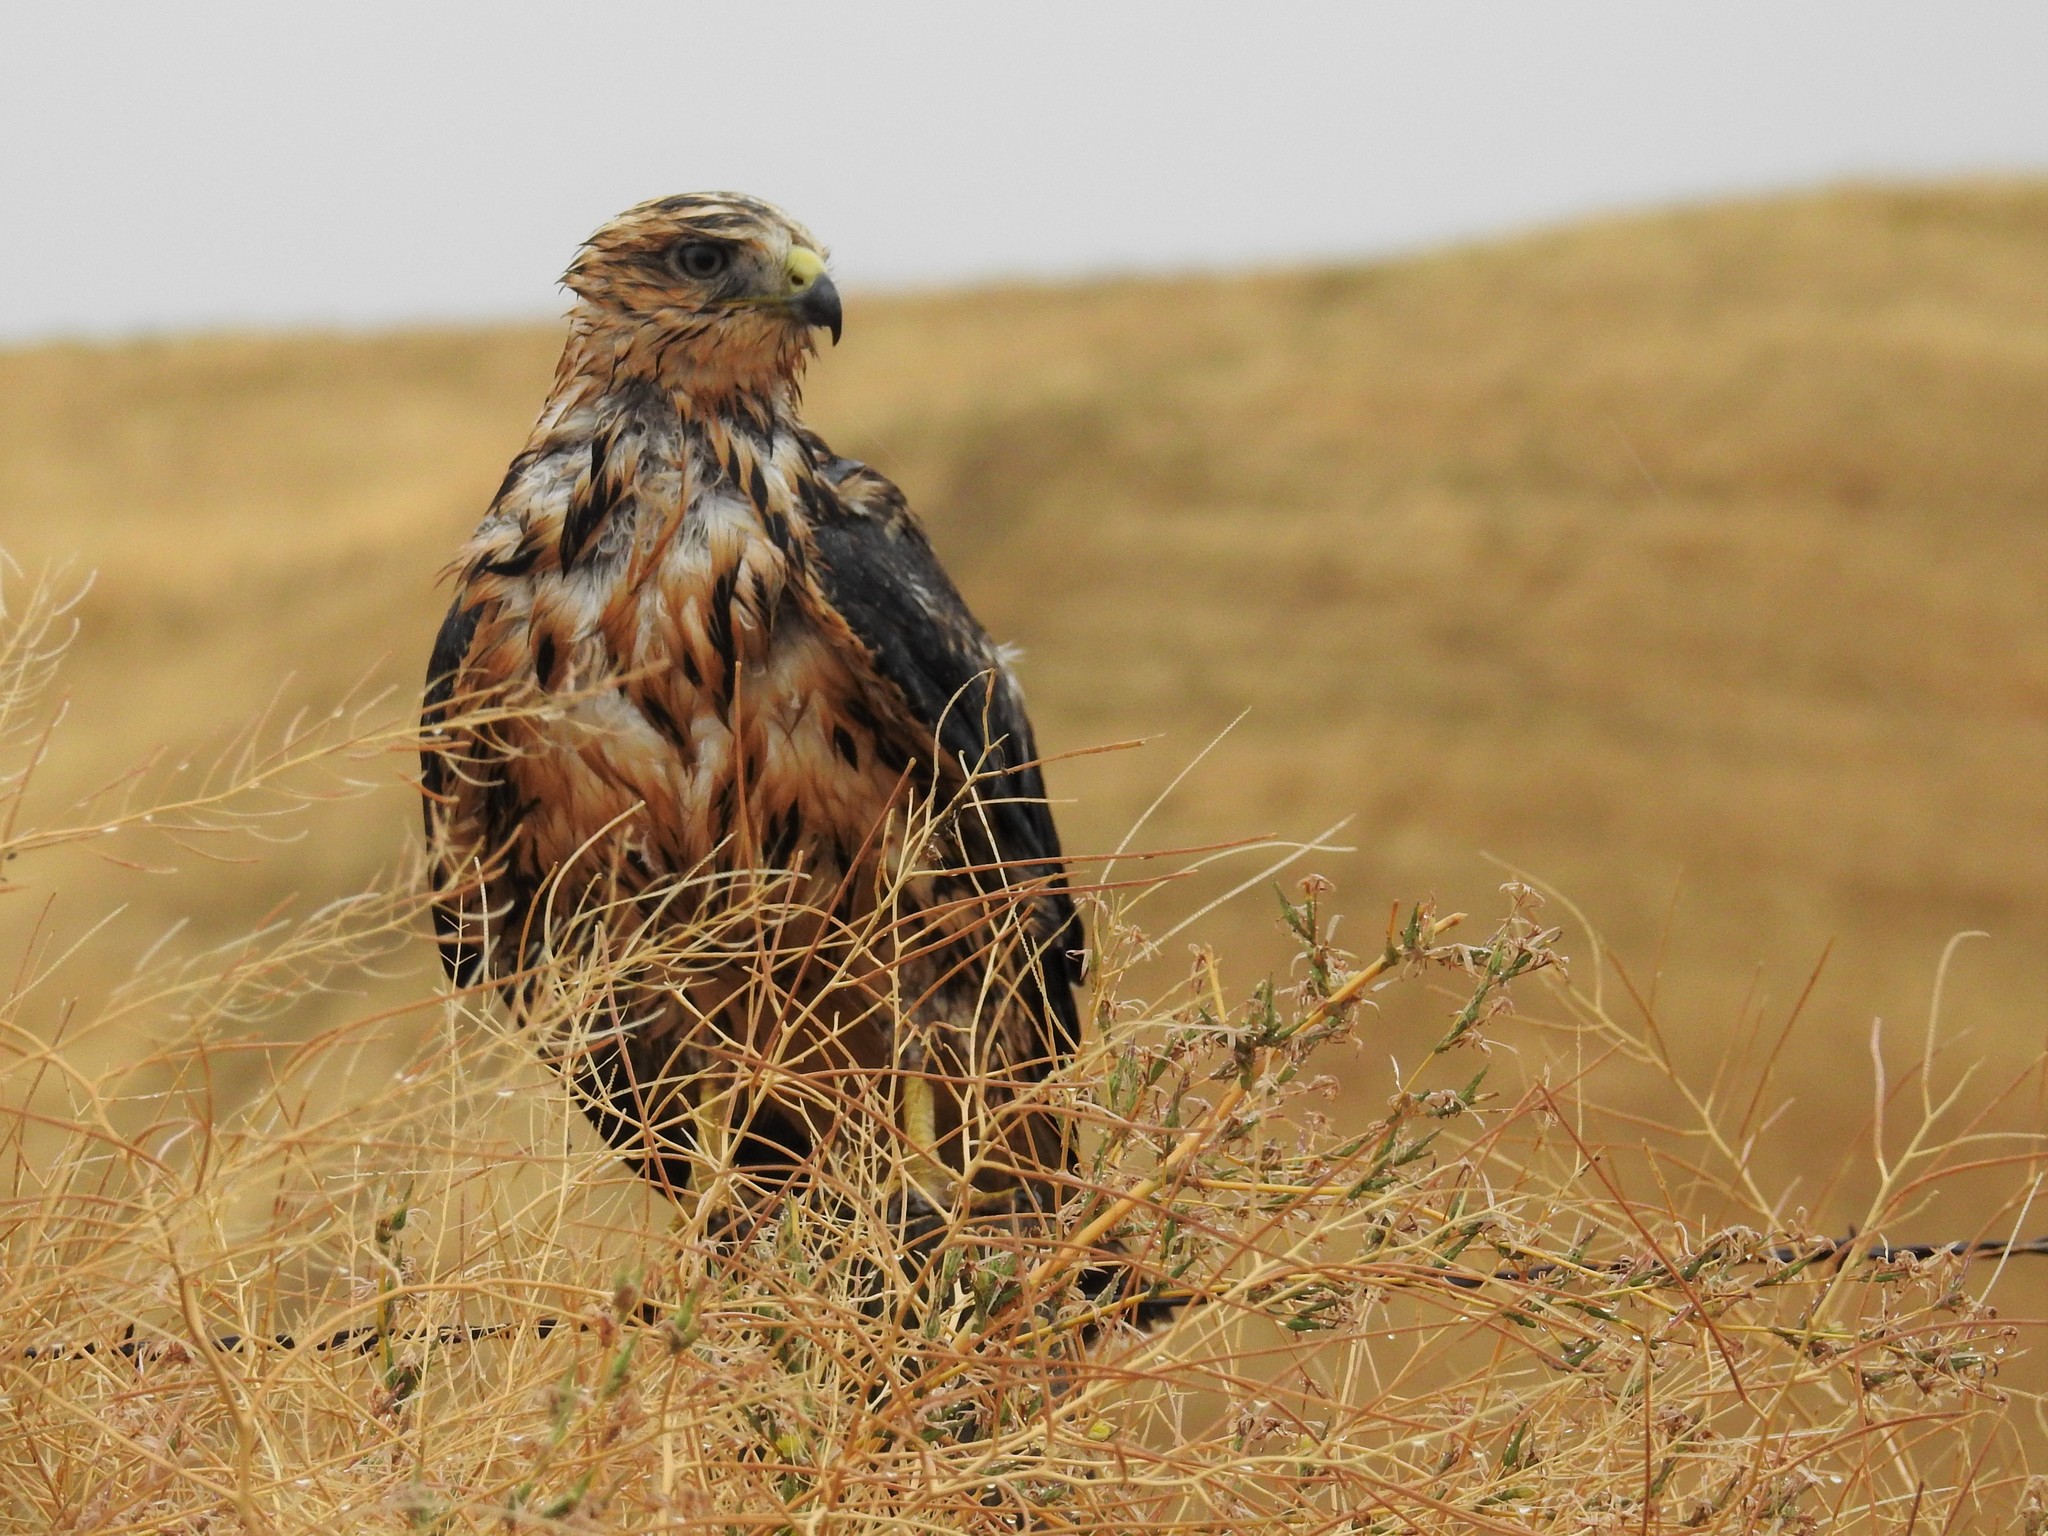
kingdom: Animalia
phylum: Chordata
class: Aves
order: Accipitriformes
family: Accipitridae
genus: Buteo
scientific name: Buteo swainsoni
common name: Swainson's hawk
